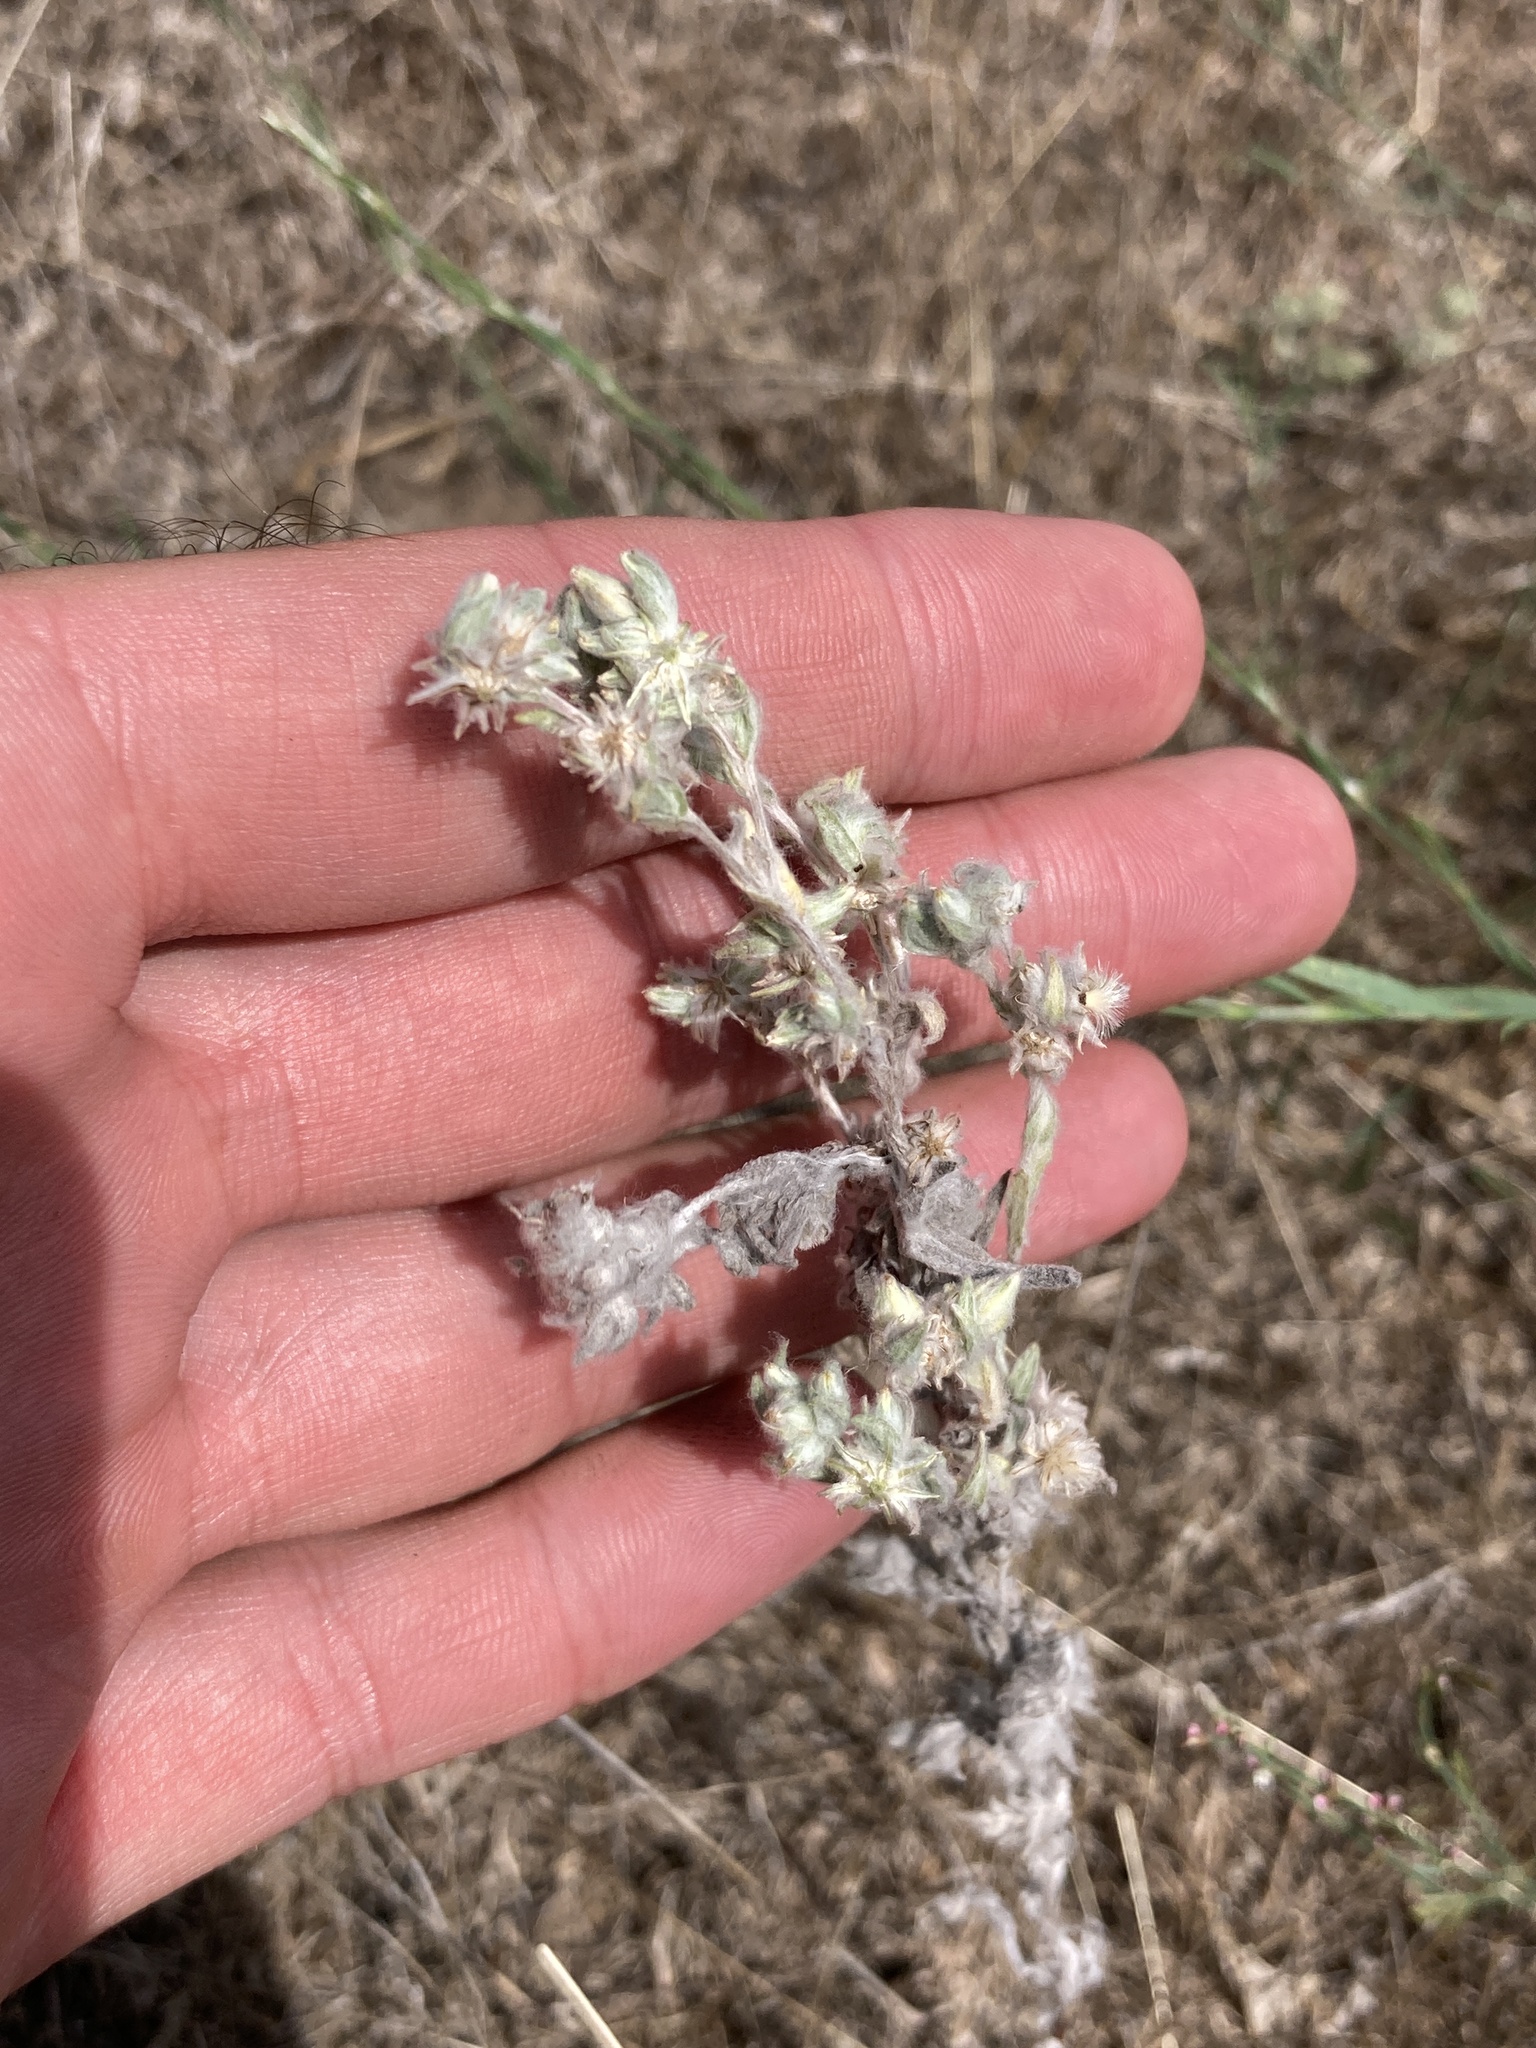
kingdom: Plantae
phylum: Tracheophyta
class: Magnoliopsida
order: Asterales
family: Asteraceae
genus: Filago
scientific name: Filago arvensis
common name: Field cudweed
